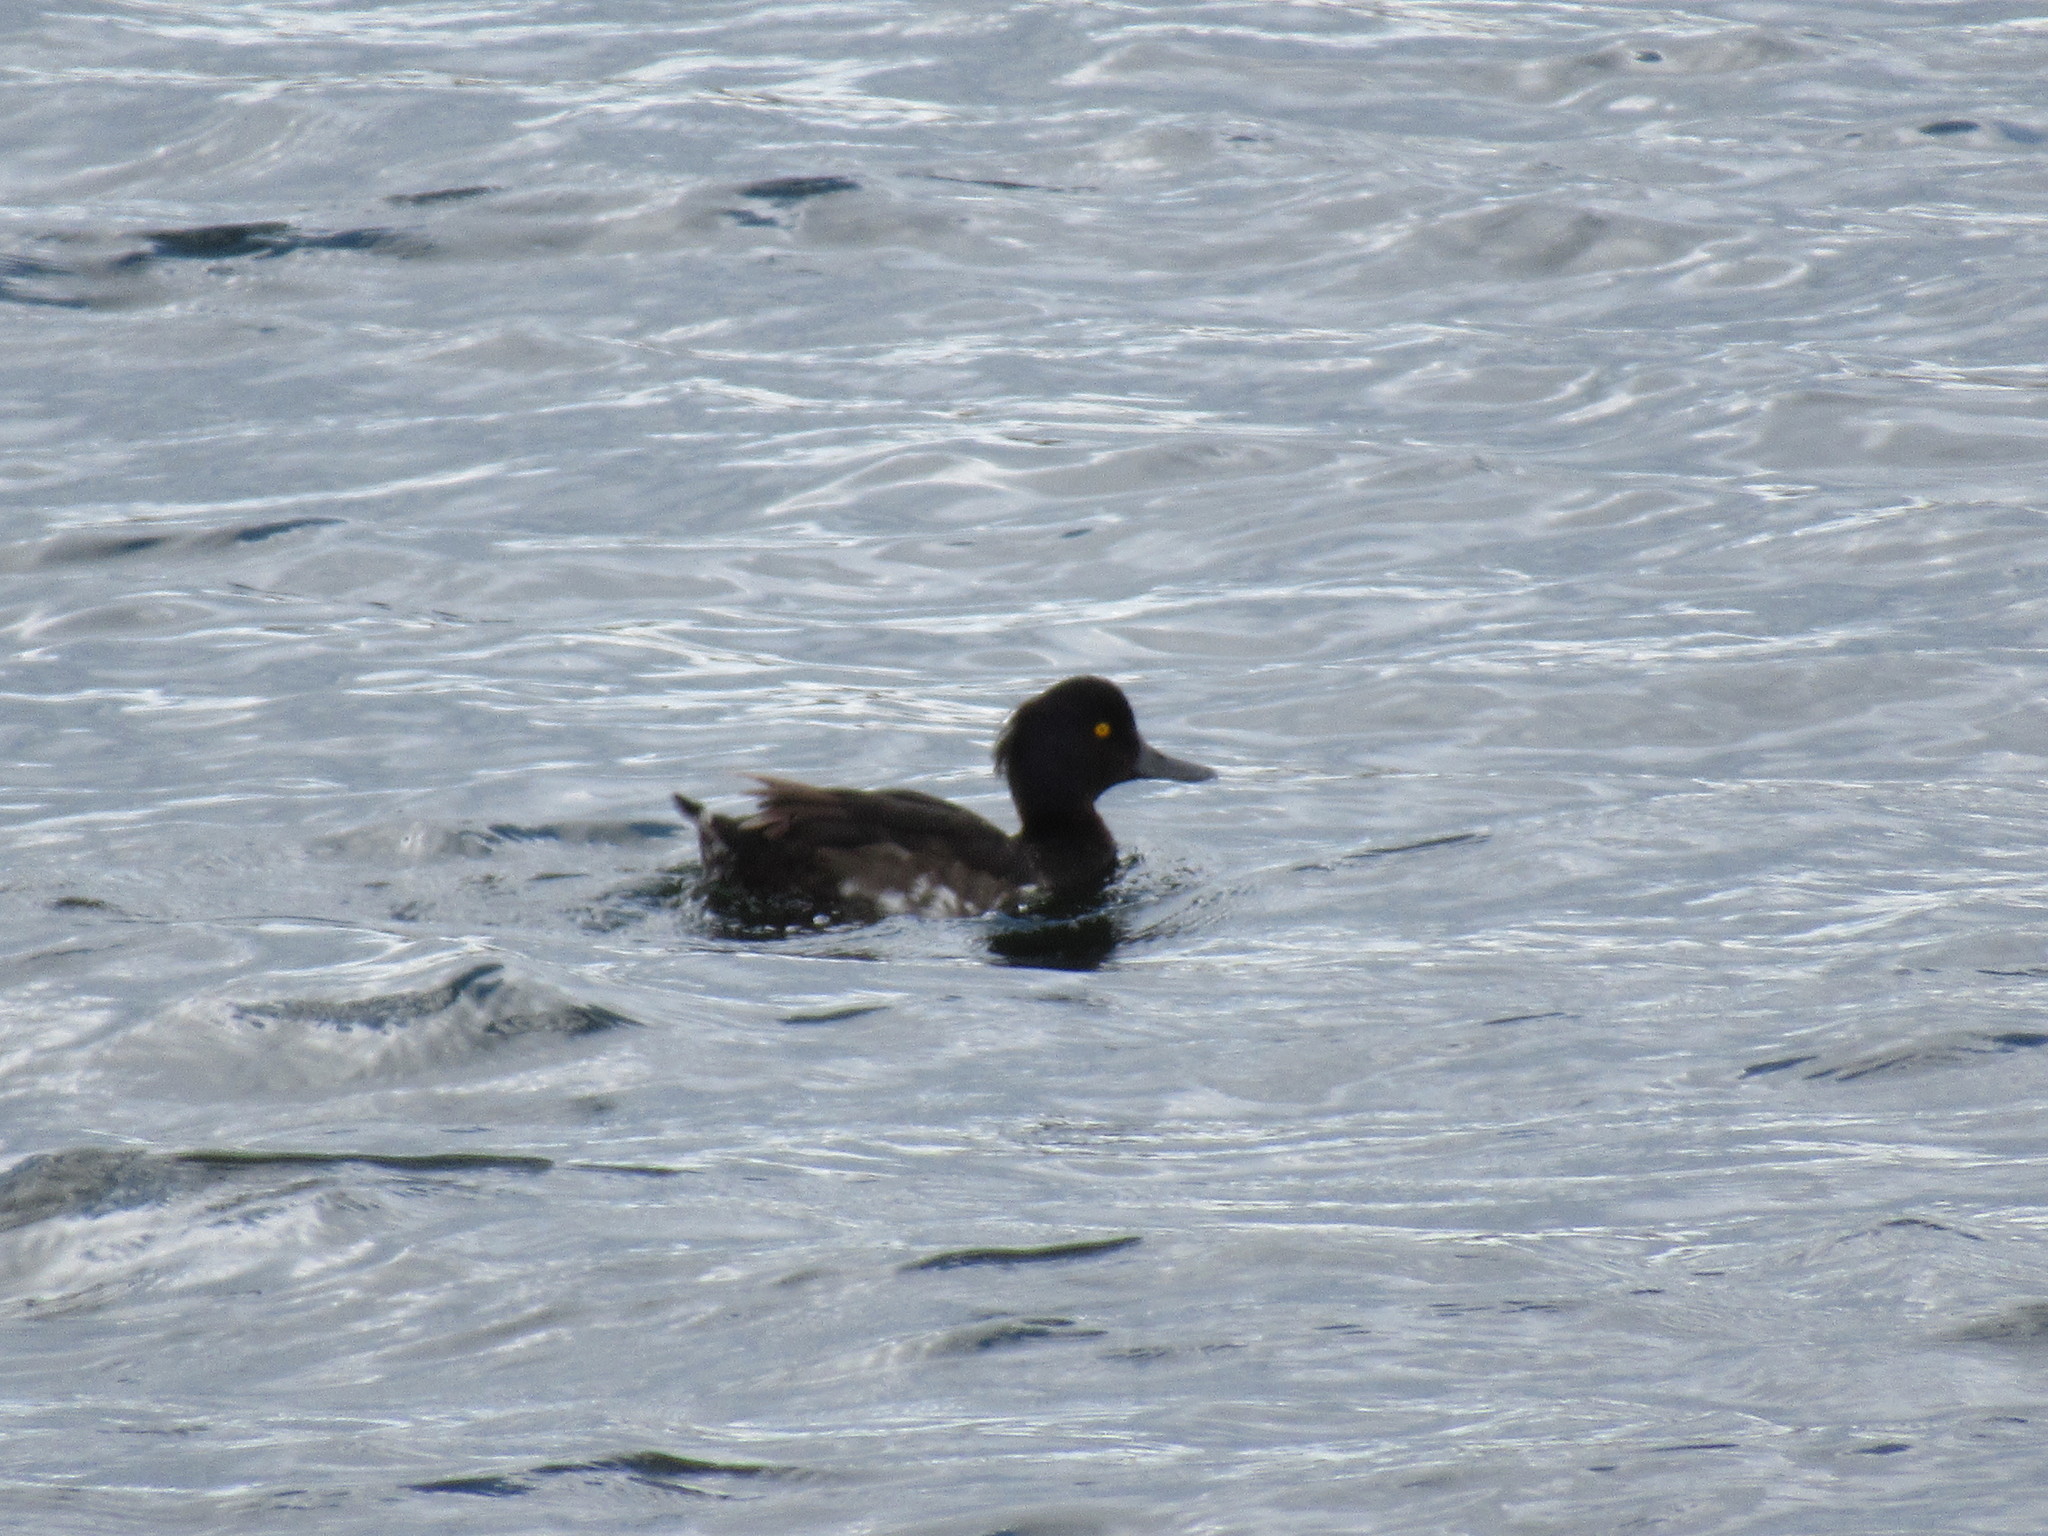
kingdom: Animalia
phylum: Chordata
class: Aves
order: Anseriformes
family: Anatidae
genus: Aythya
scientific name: Aythya fuligula
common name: Tufted duck
